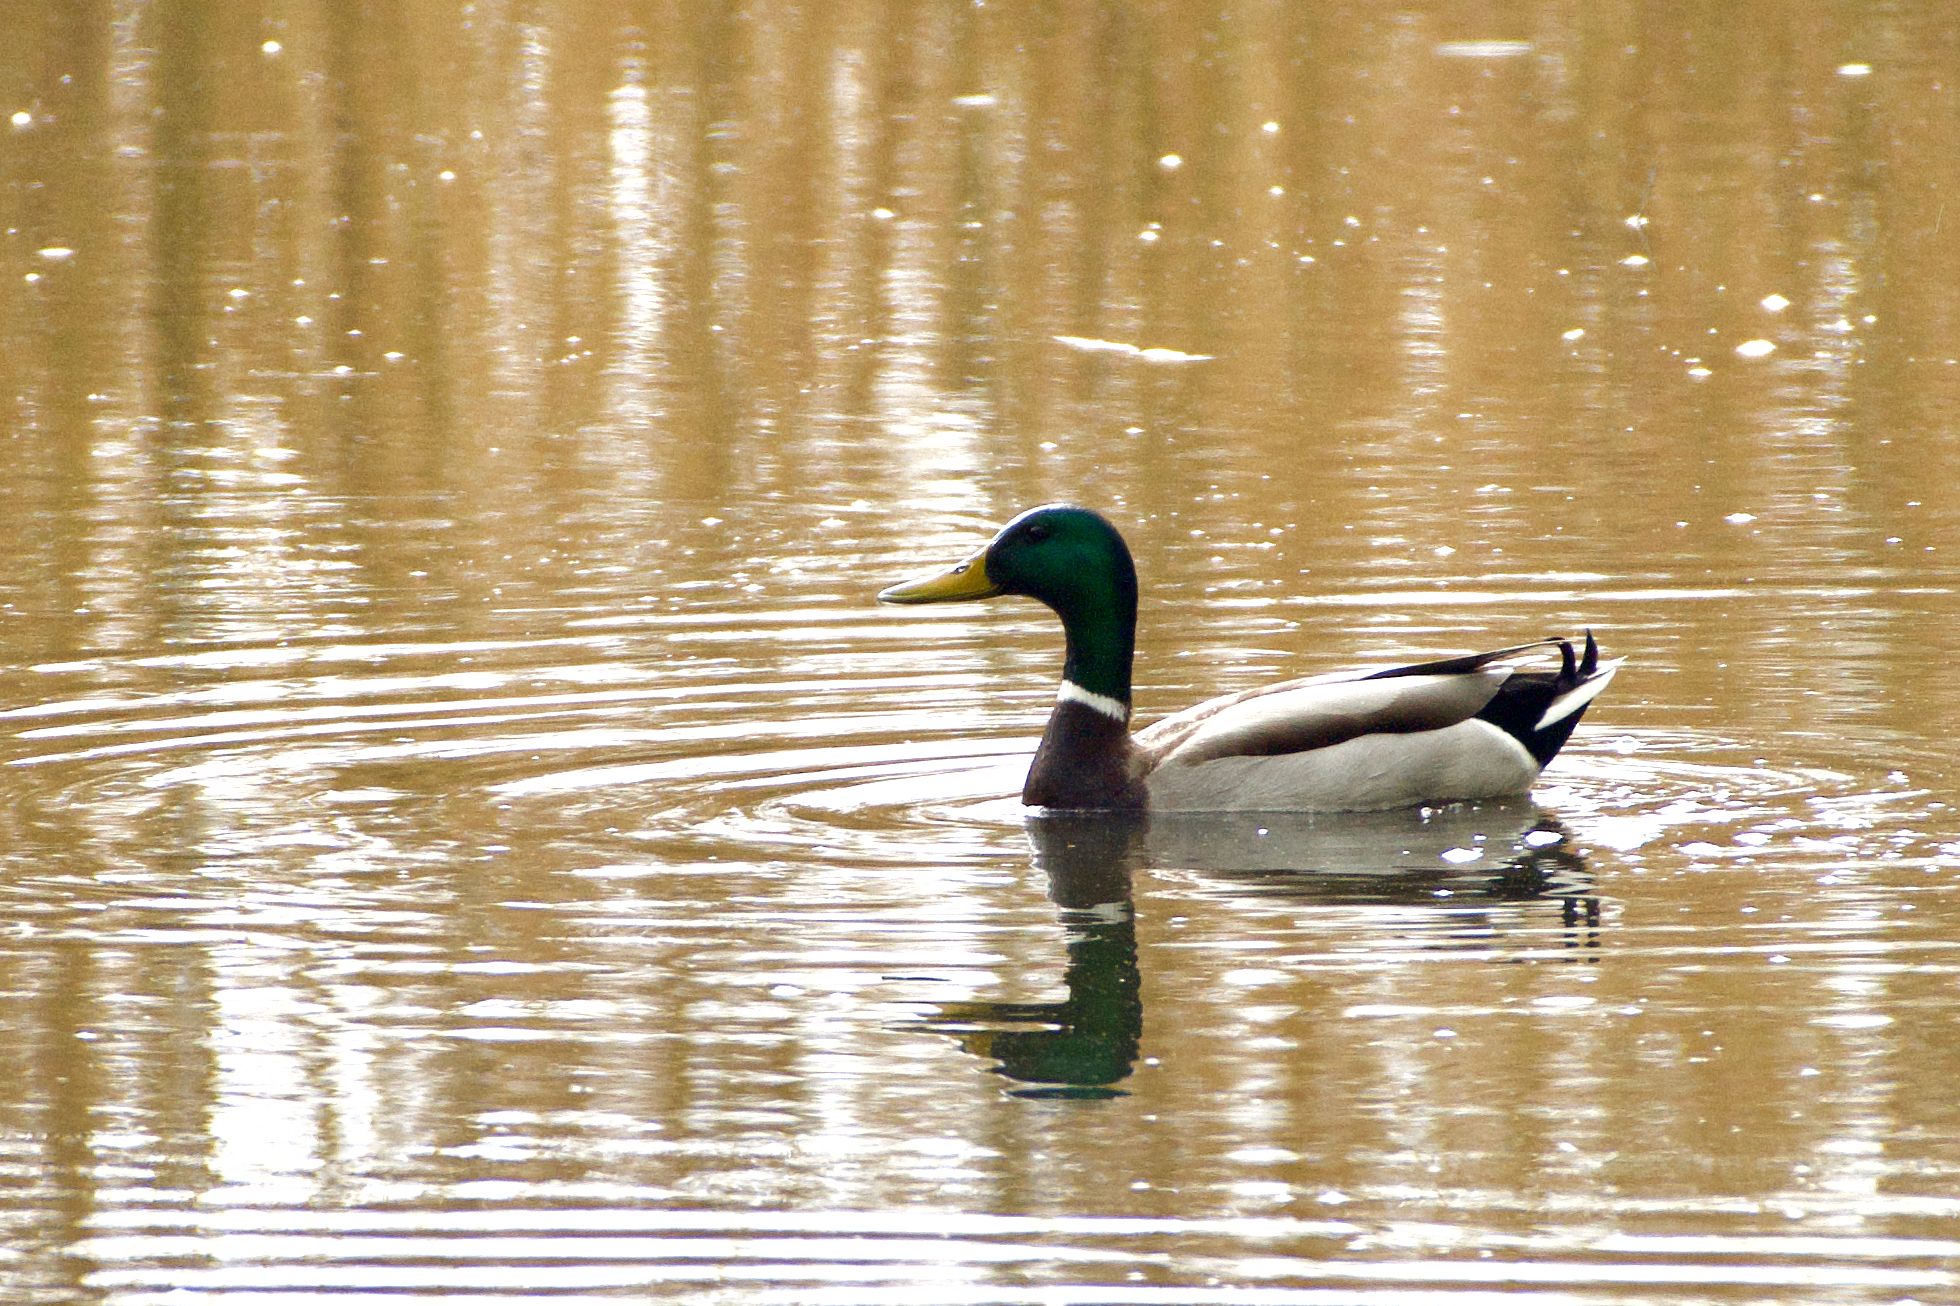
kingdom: Animalia
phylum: Chordata
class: Aves
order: Anseriformes
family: Anatidae
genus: Anas
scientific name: Anas platyrhynchos
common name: Mallard
